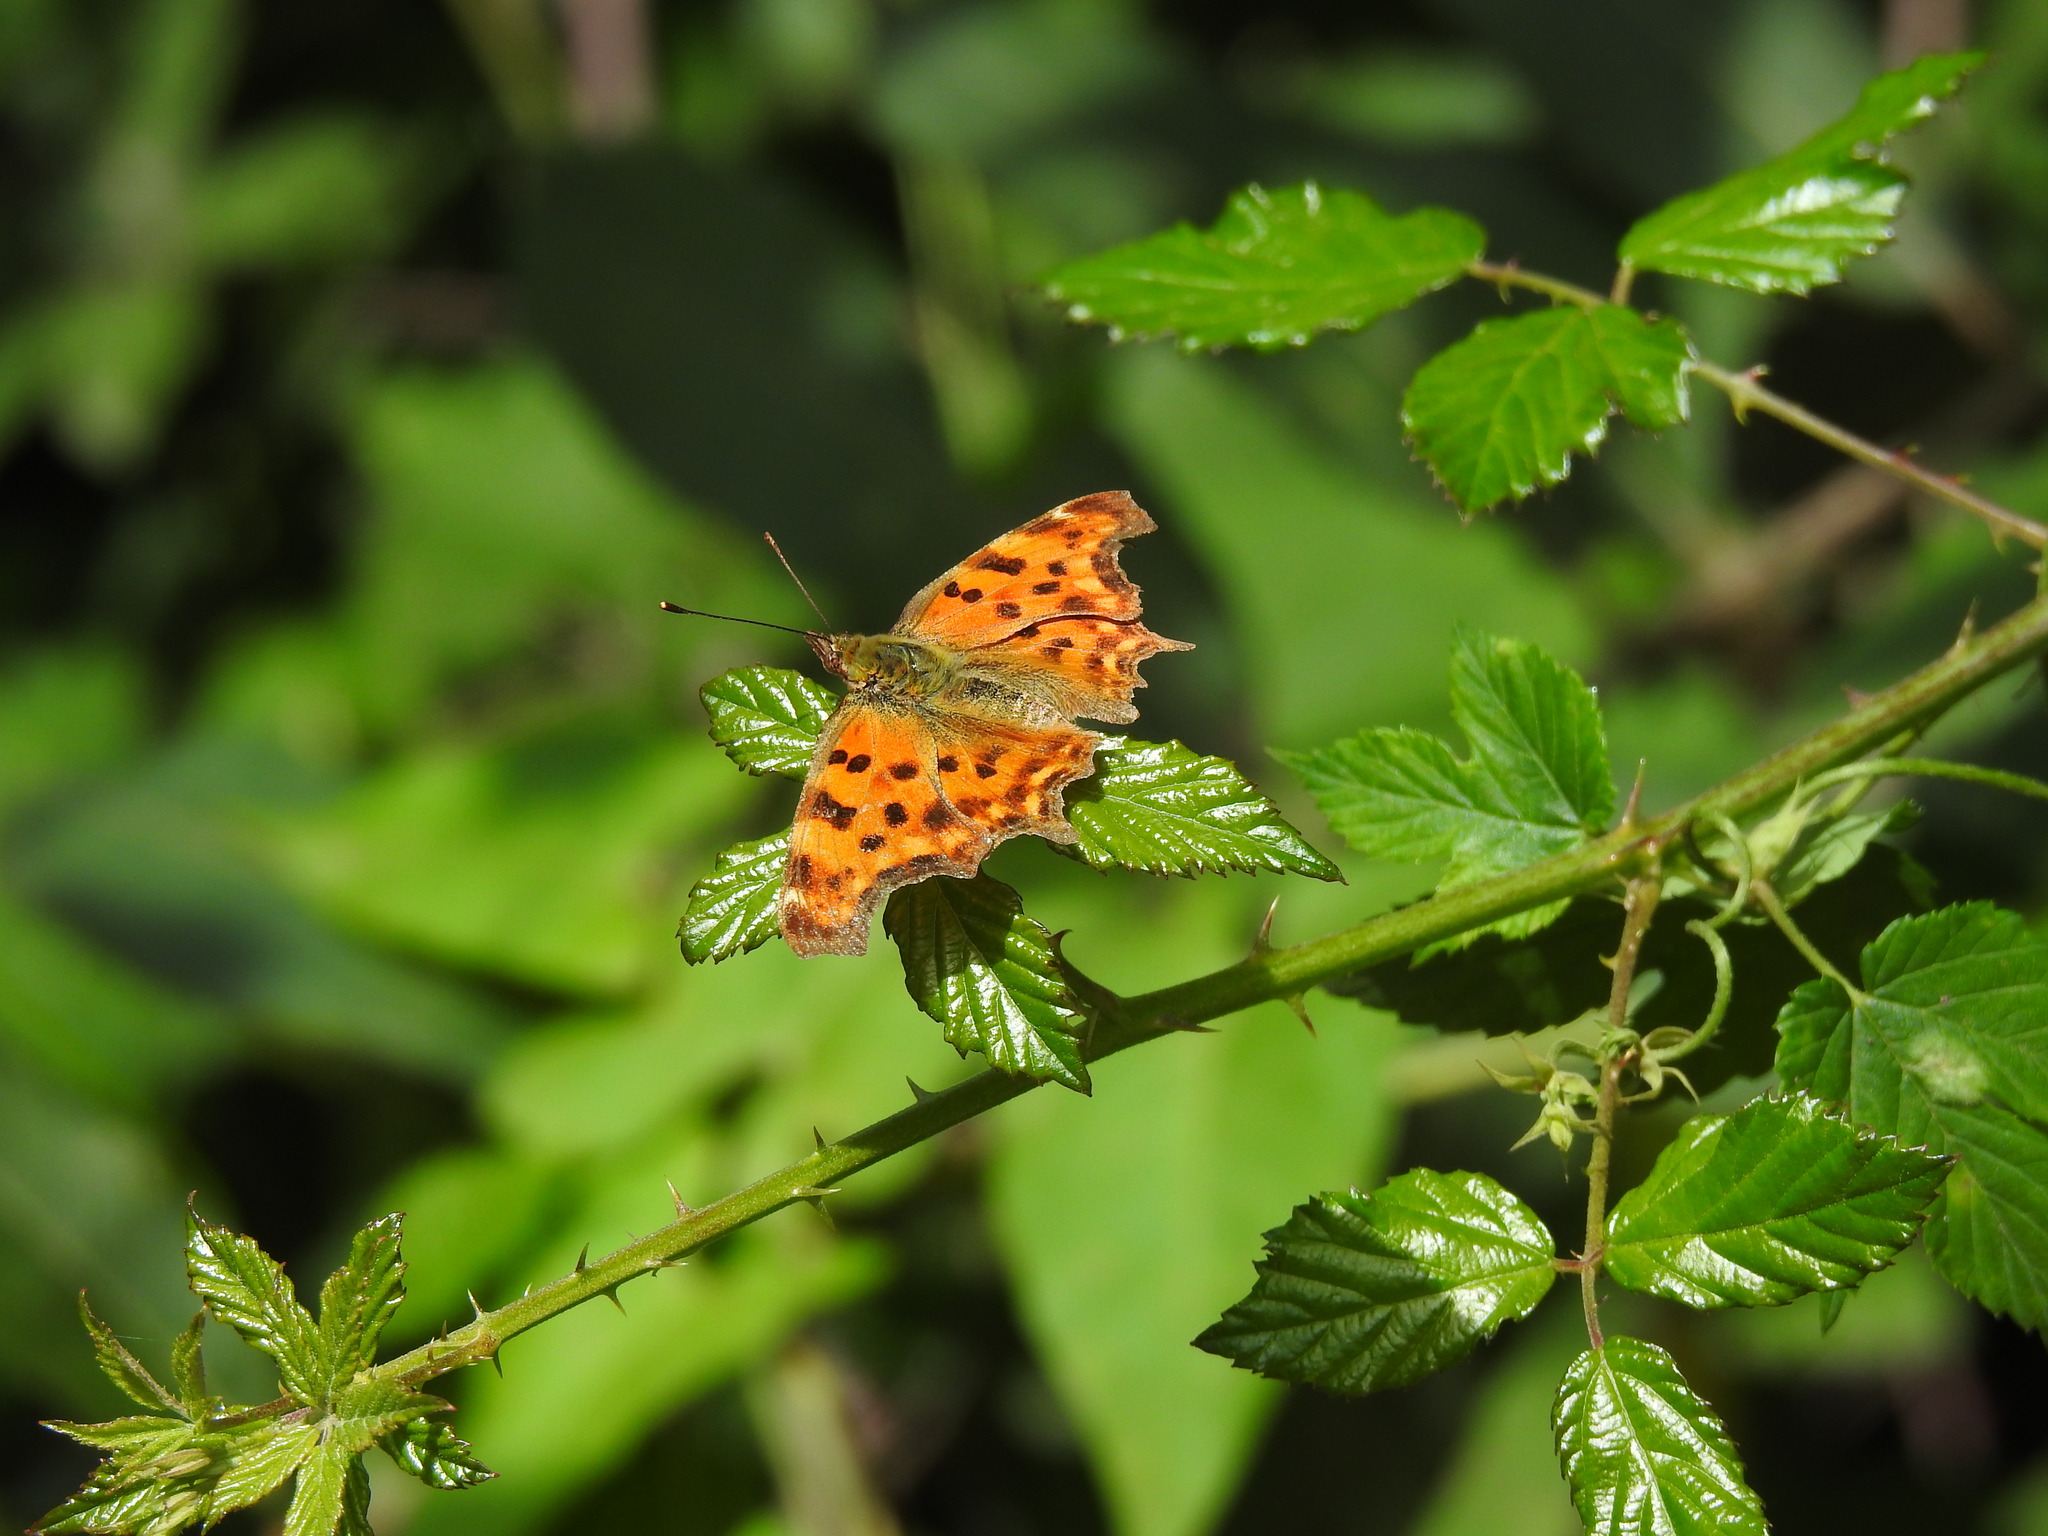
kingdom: Animalia
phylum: Arthropoda
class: Insecta
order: Lepidoptera
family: Nymphalidae
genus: Polygonia
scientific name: Polygonia c-album
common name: Comma
